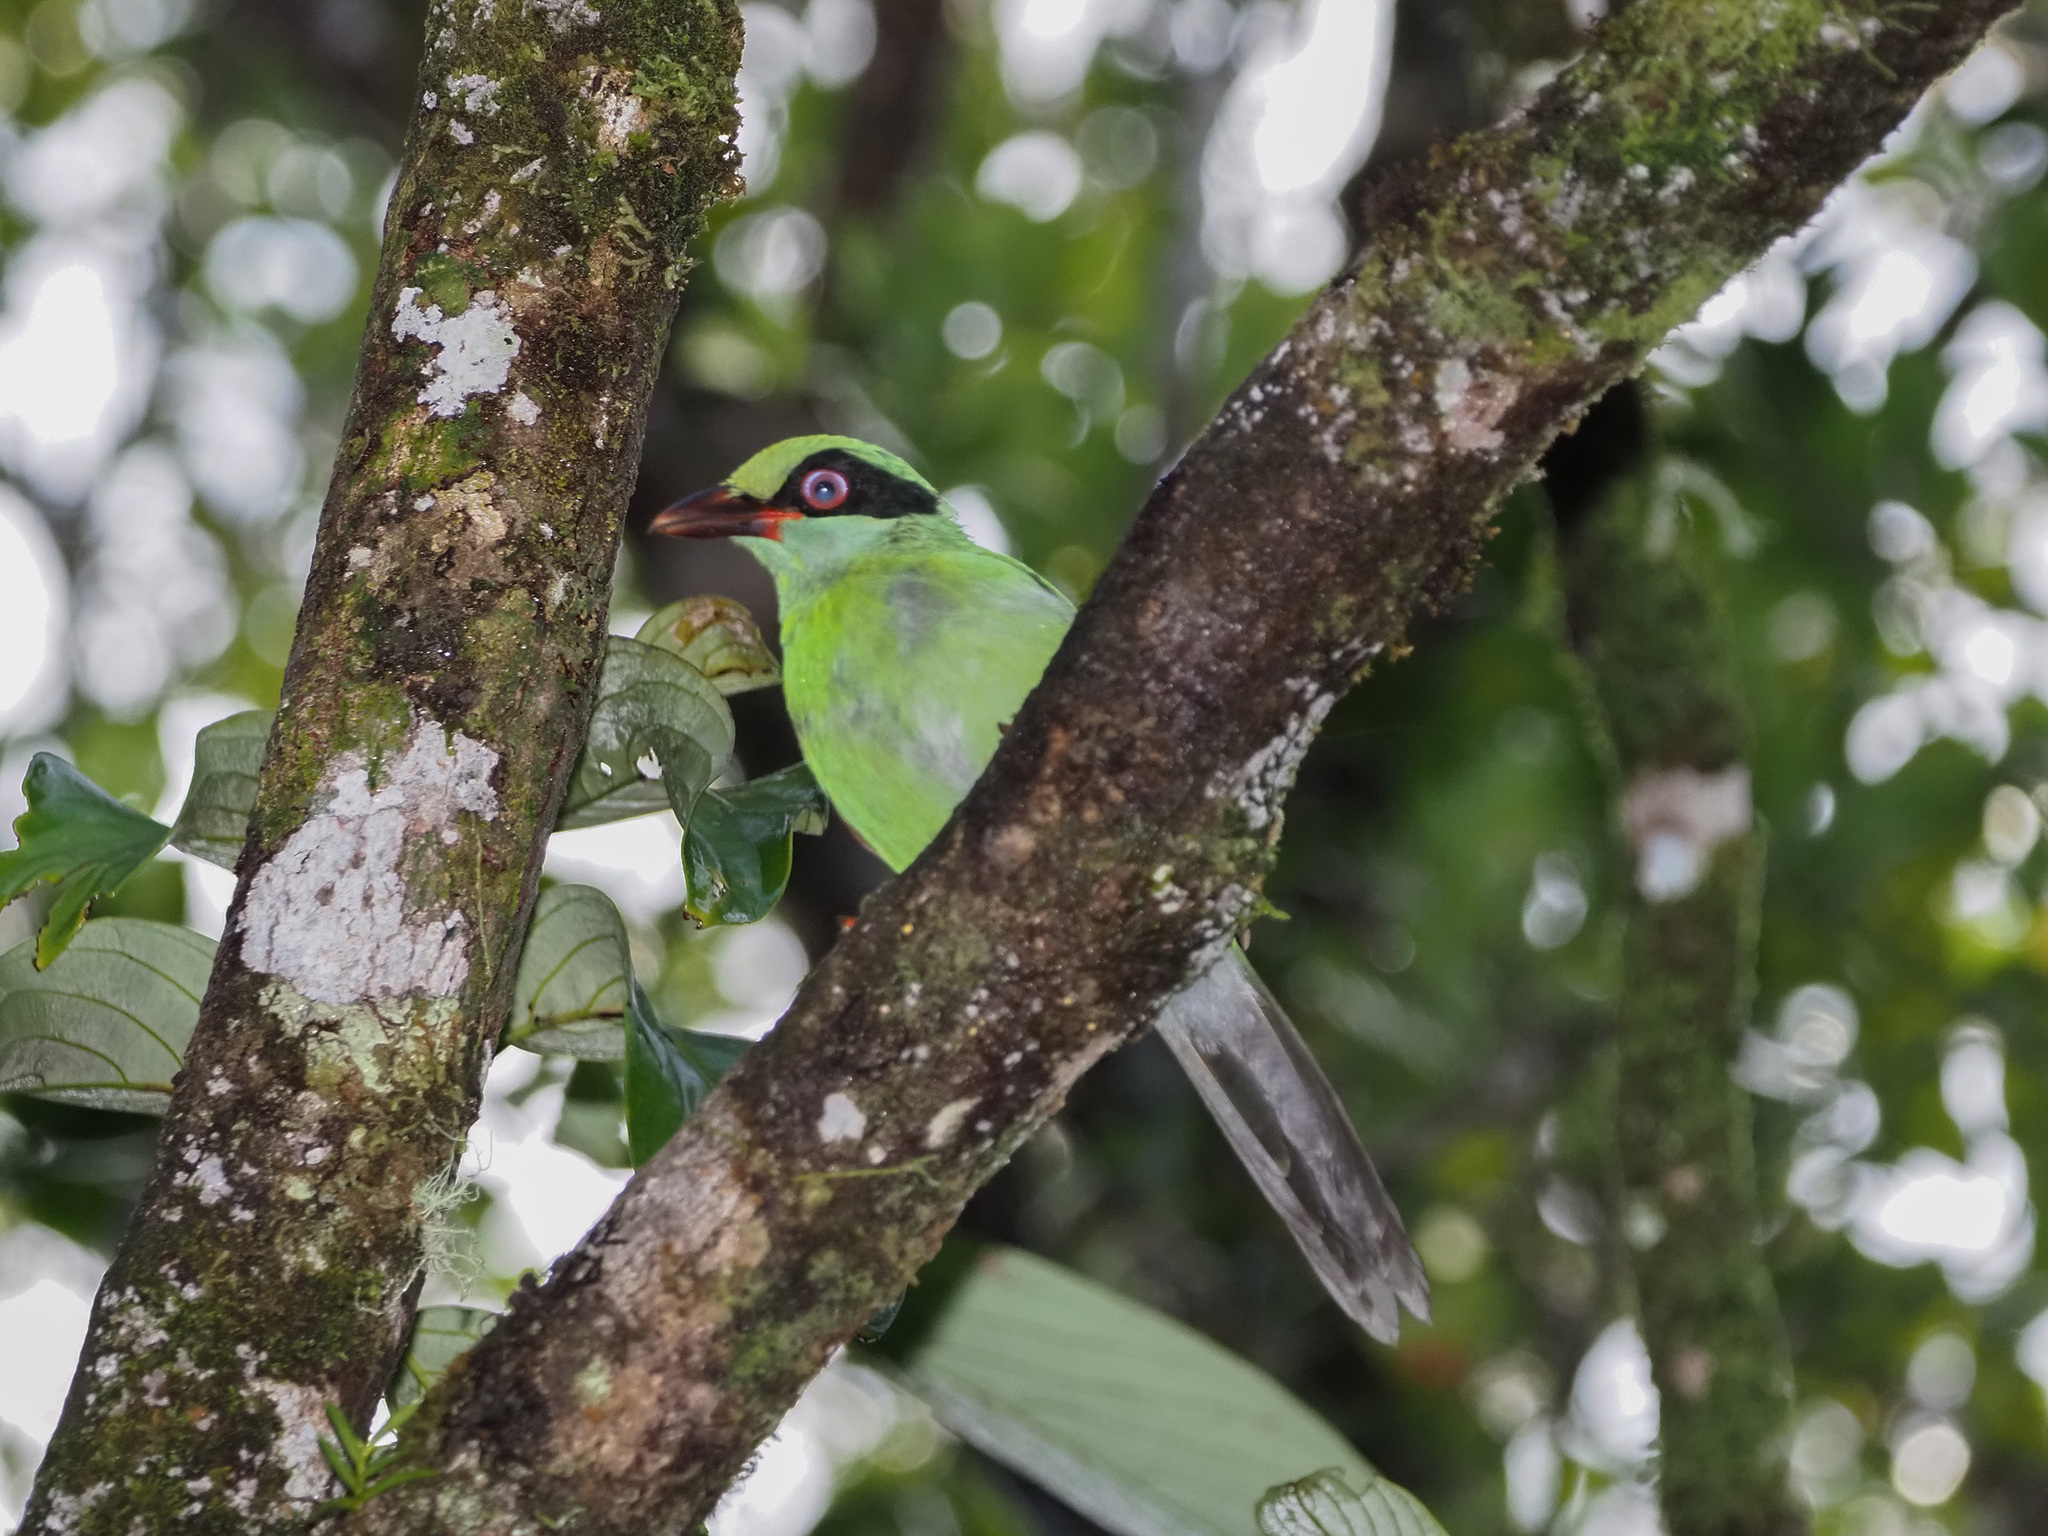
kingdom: Animalia
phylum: Chordata
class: Aves
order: Passeriformes
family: Corvidae
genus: Cissa
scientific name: Cissa jefferyi
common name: Bornean green magpie
